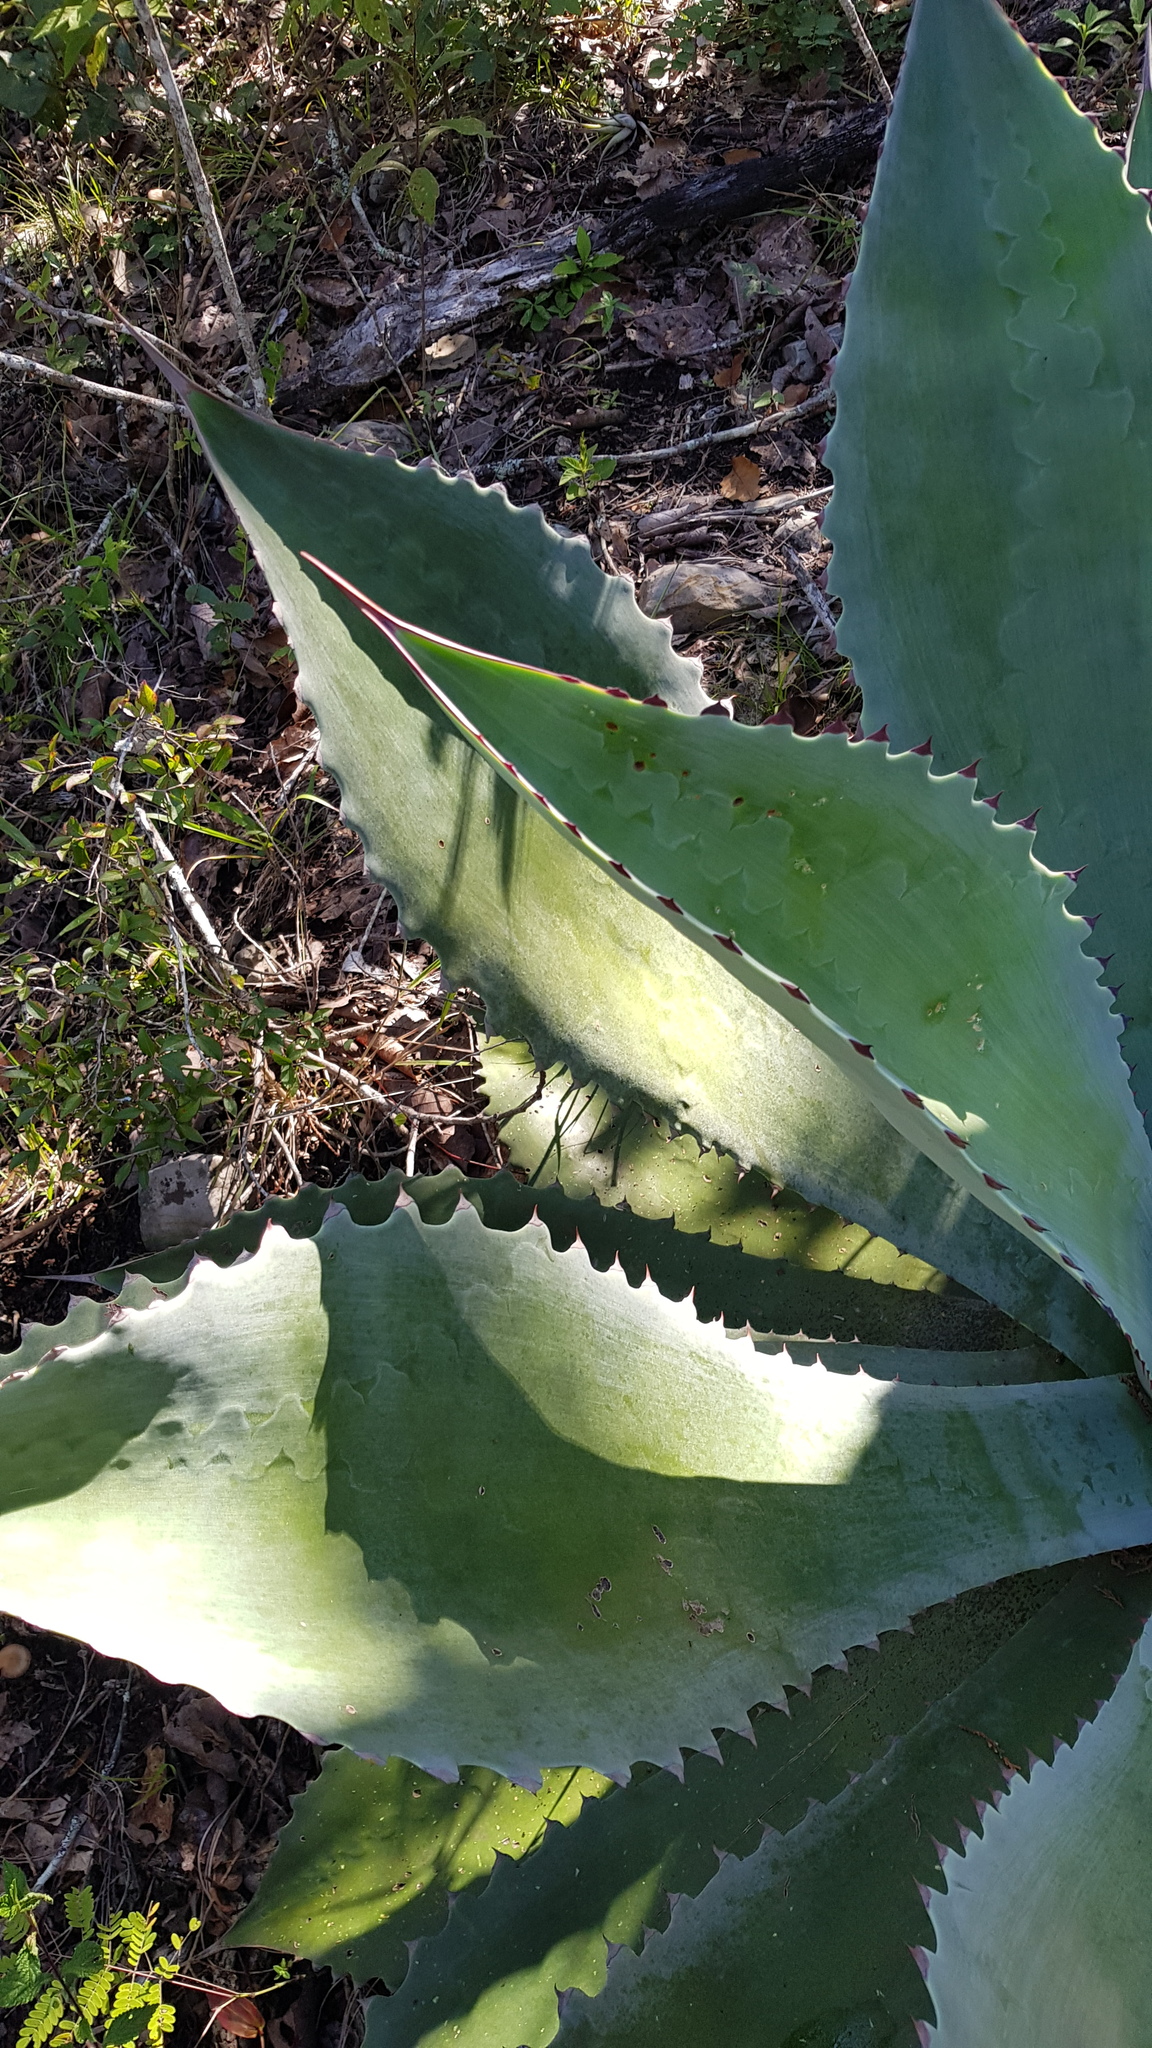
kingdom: Plantae
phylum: Tracheophyta
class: Liliopsida
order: Asparagales
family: Asparagaceae
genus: Agave
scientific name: Agave seemanniana
